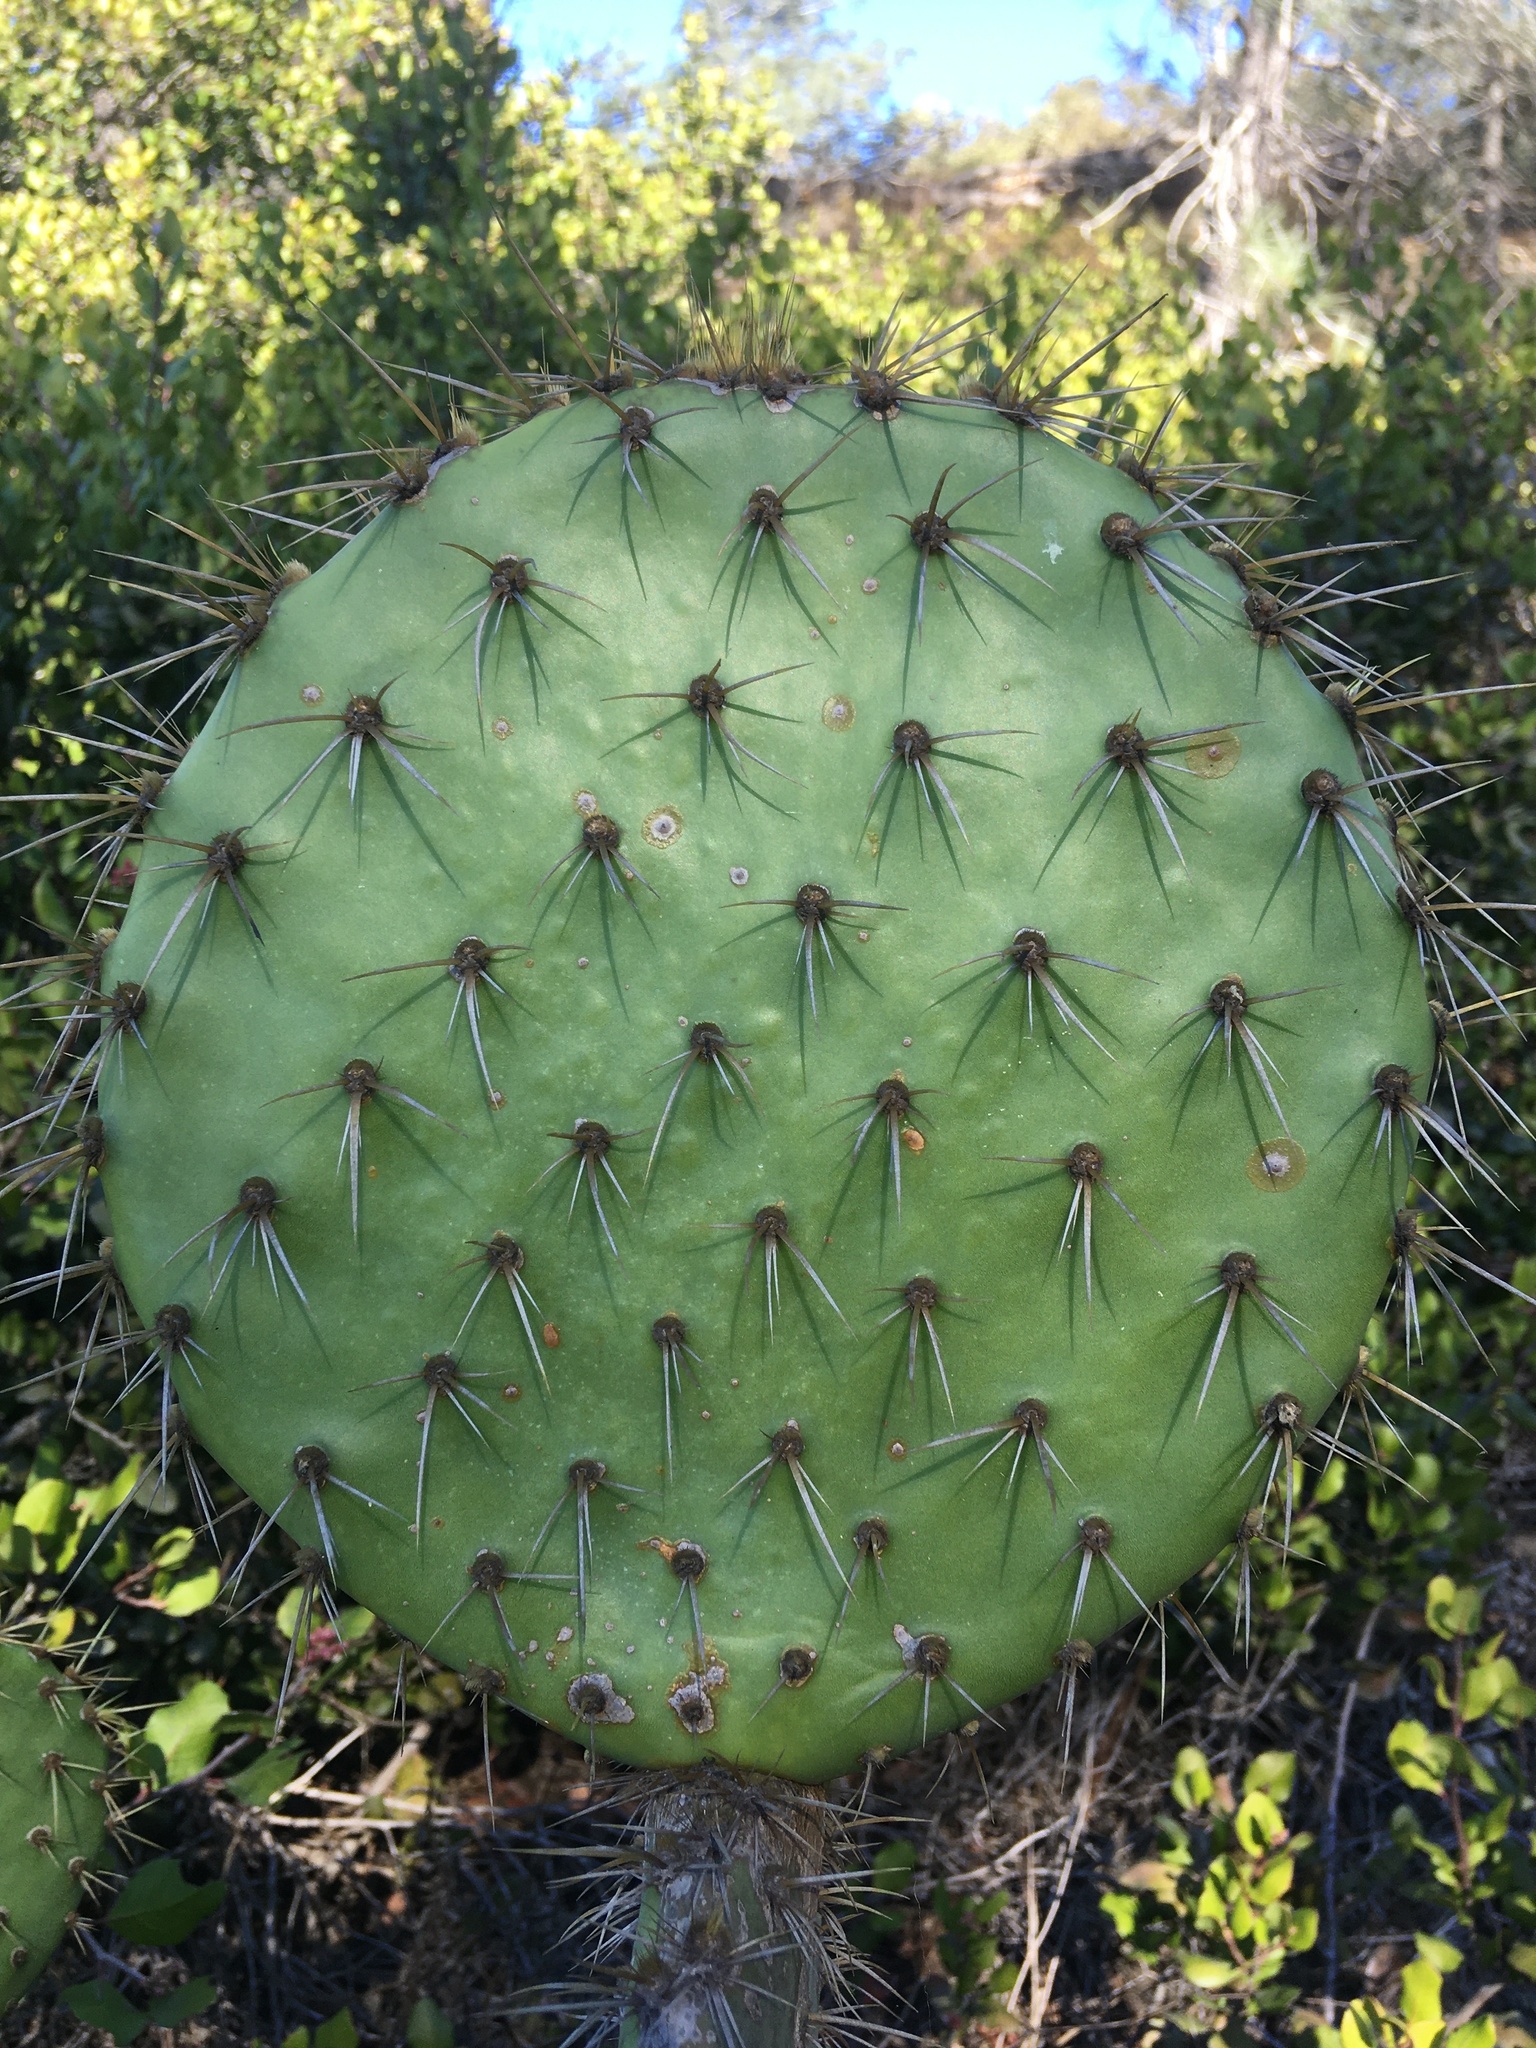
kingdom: Plantae
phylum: Tracheophyta
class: Magnoliopsida
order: Caryophyllales
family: Cactaceae
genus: Opuntia
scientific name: Opuntia oricola
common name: Chaparral prickly-pear
